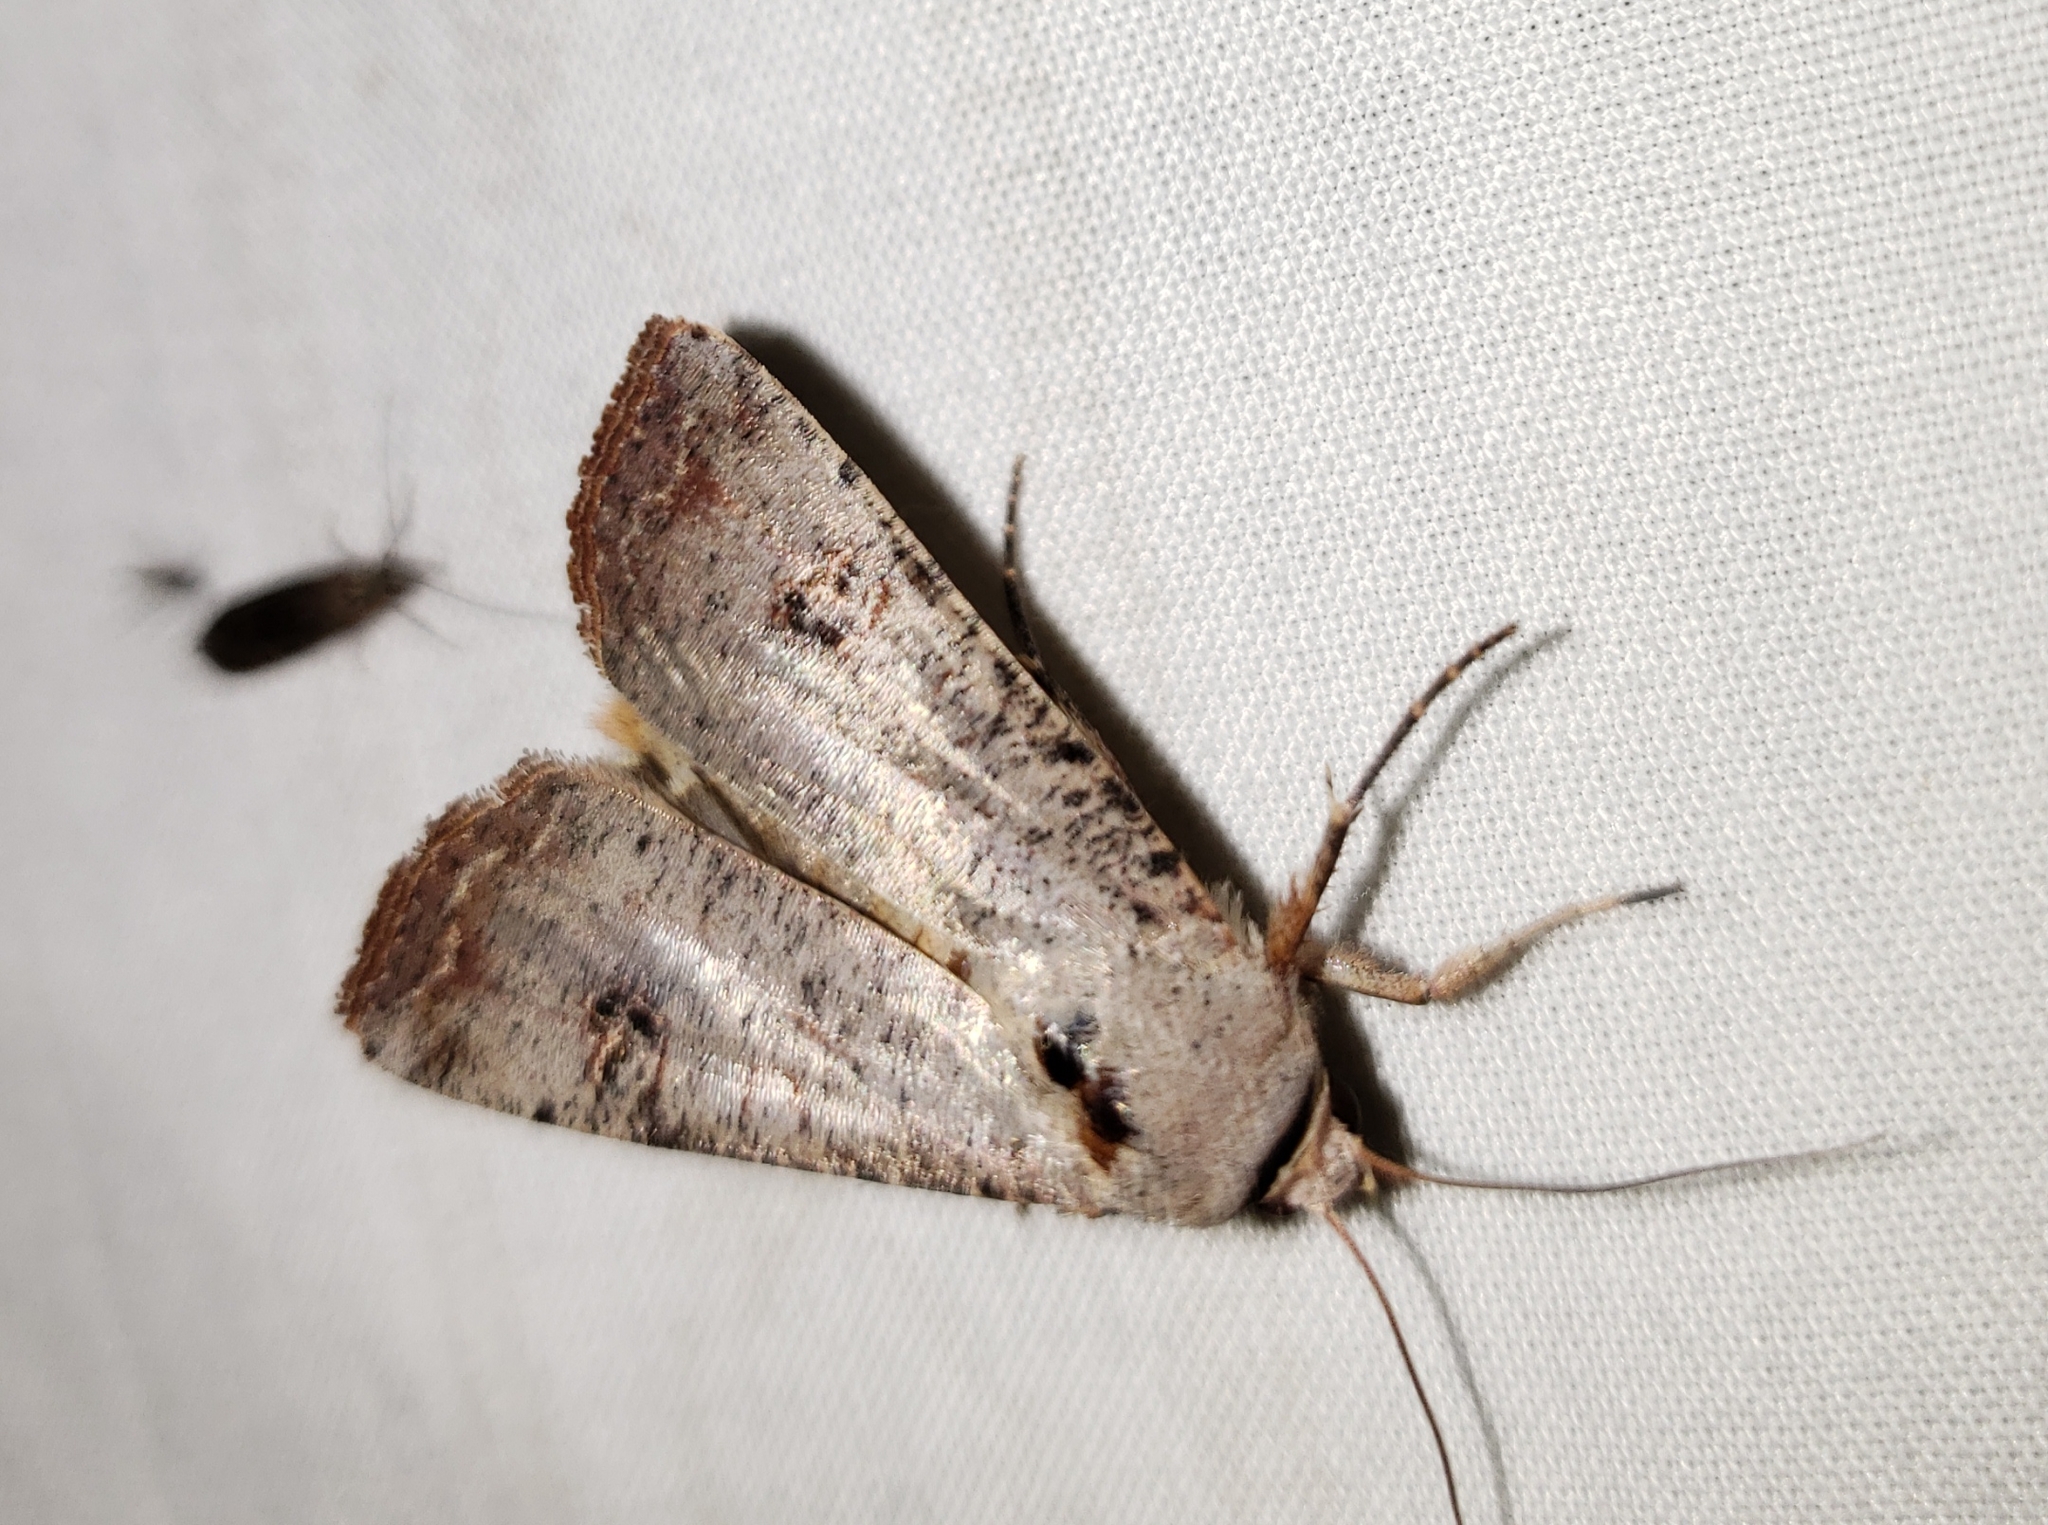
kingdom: Animalia
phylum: Arthropoda
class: Insecta
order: Lepidoptera
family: Noctuidae
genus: Anicla
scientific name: Anicla infecta
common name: Green cutworm
